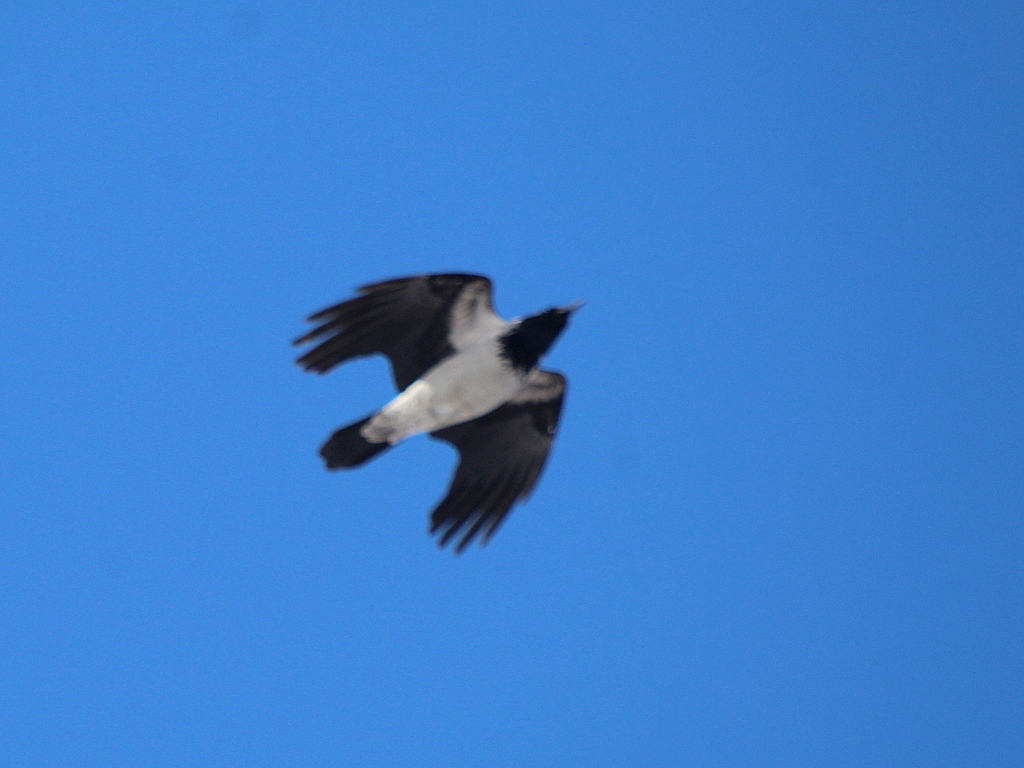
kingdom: Animalia
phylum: Chordata
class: Aves
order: Passeriformes
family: Corvidae
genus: Corvus
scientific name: Corvus cornix
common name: Hooded crow
